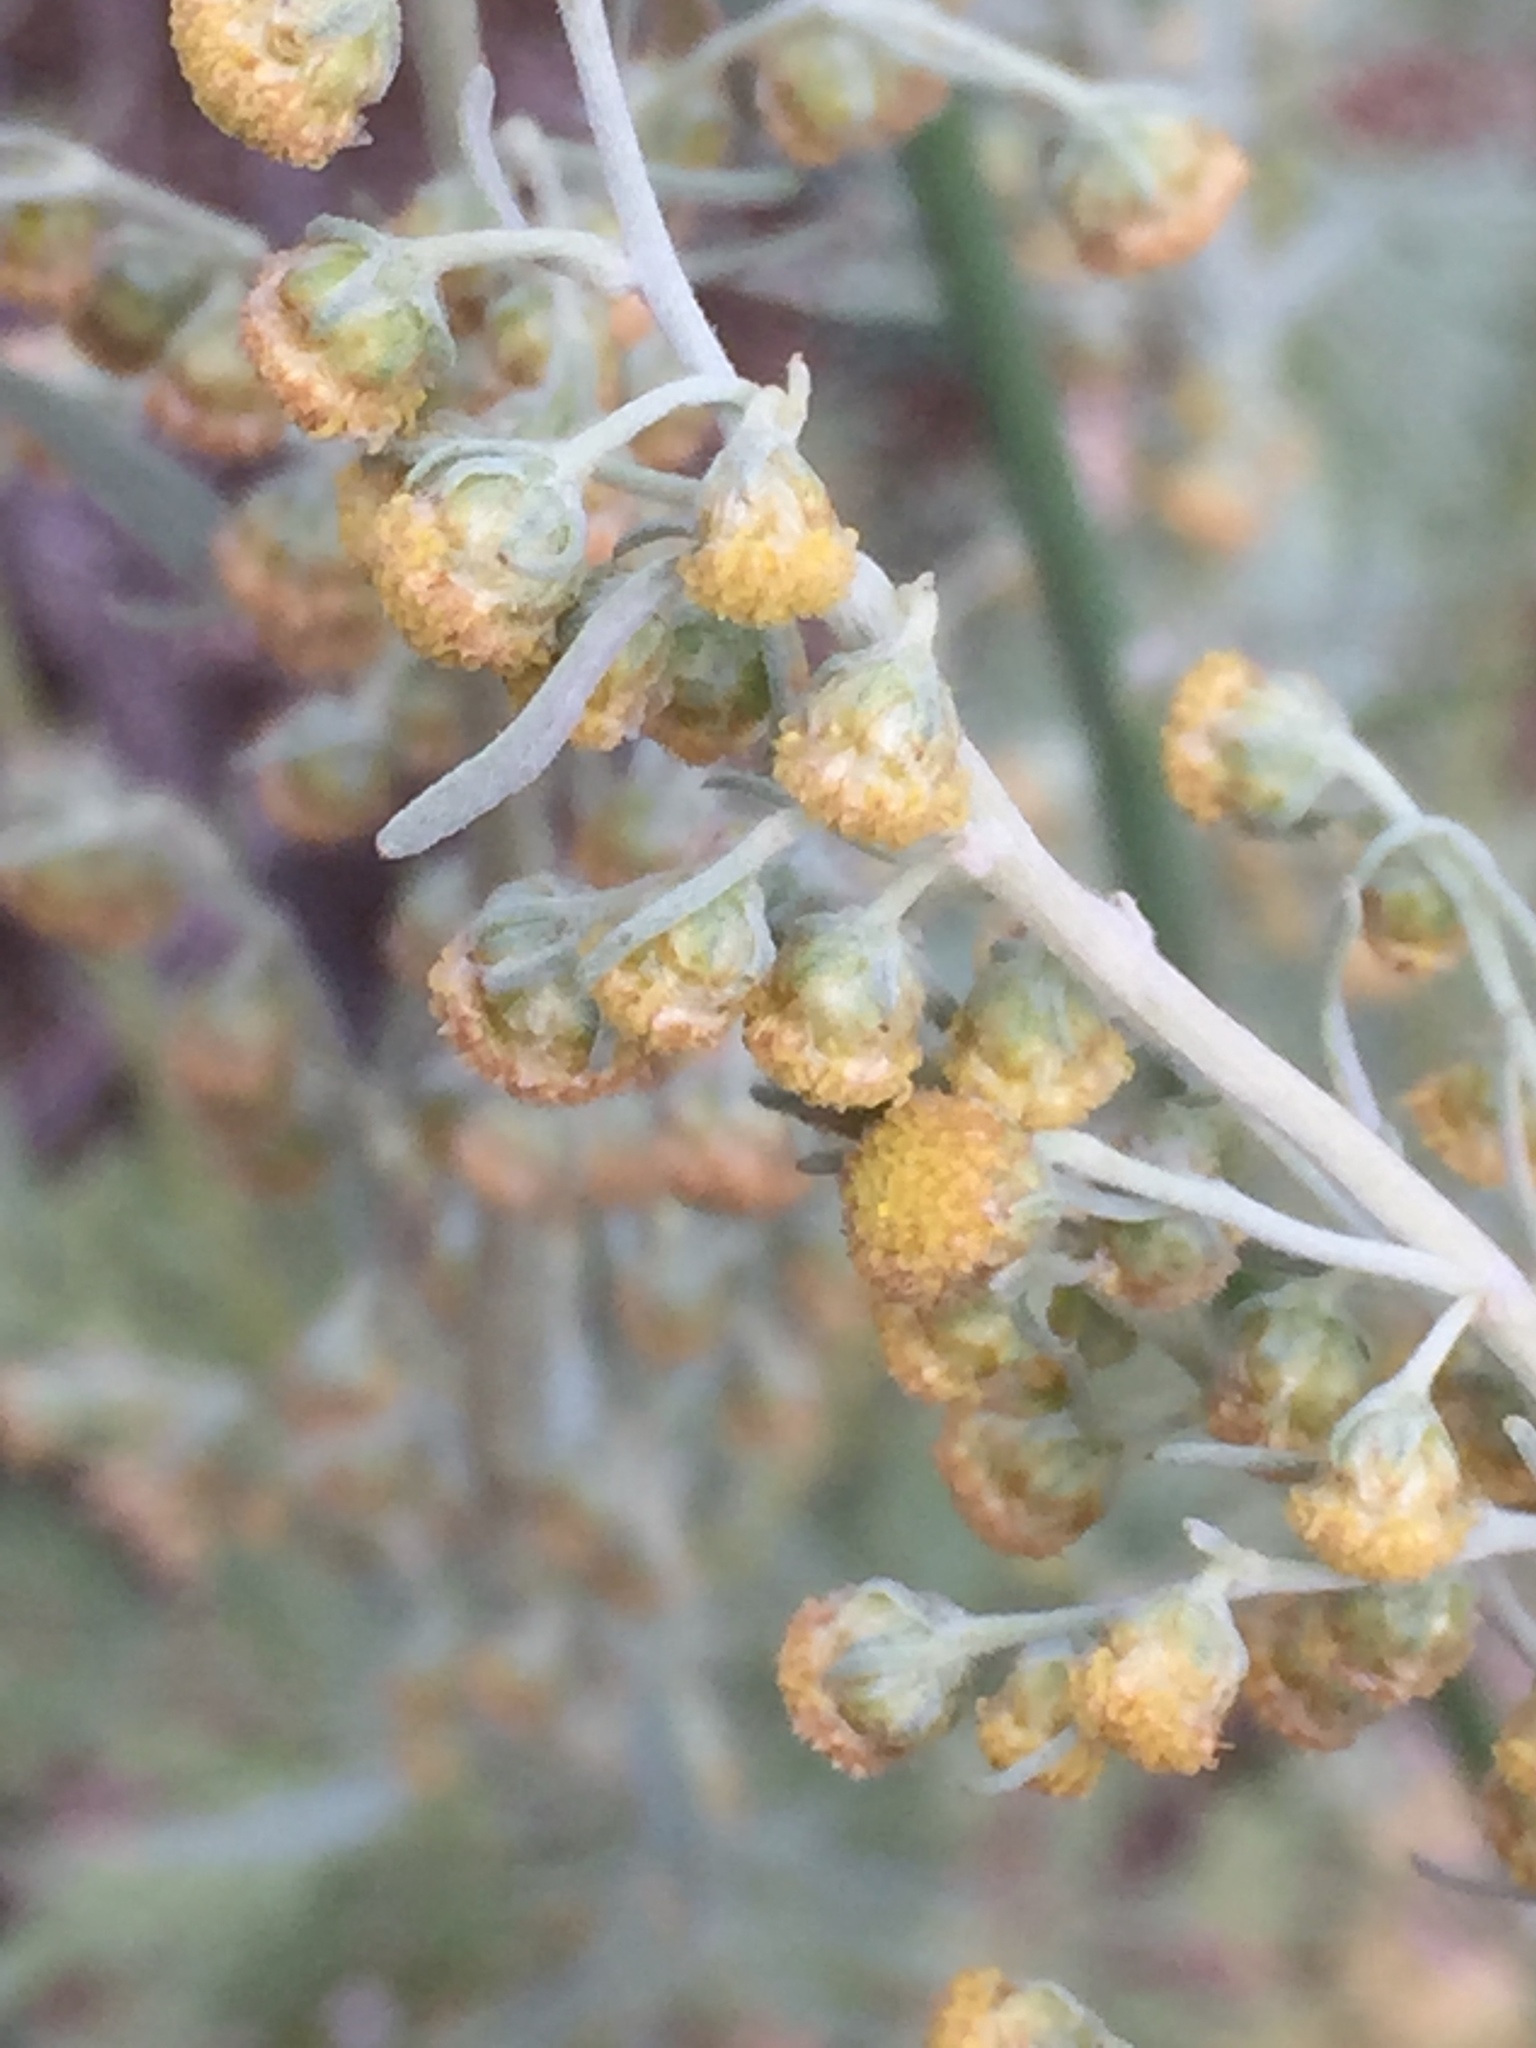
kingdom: Plantae
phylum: Tracheophyta
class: Magnoliopsida
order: Asterales
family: Asteraceae
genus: Artemisia
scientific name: Artemisia absinthium
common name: Wormwood
